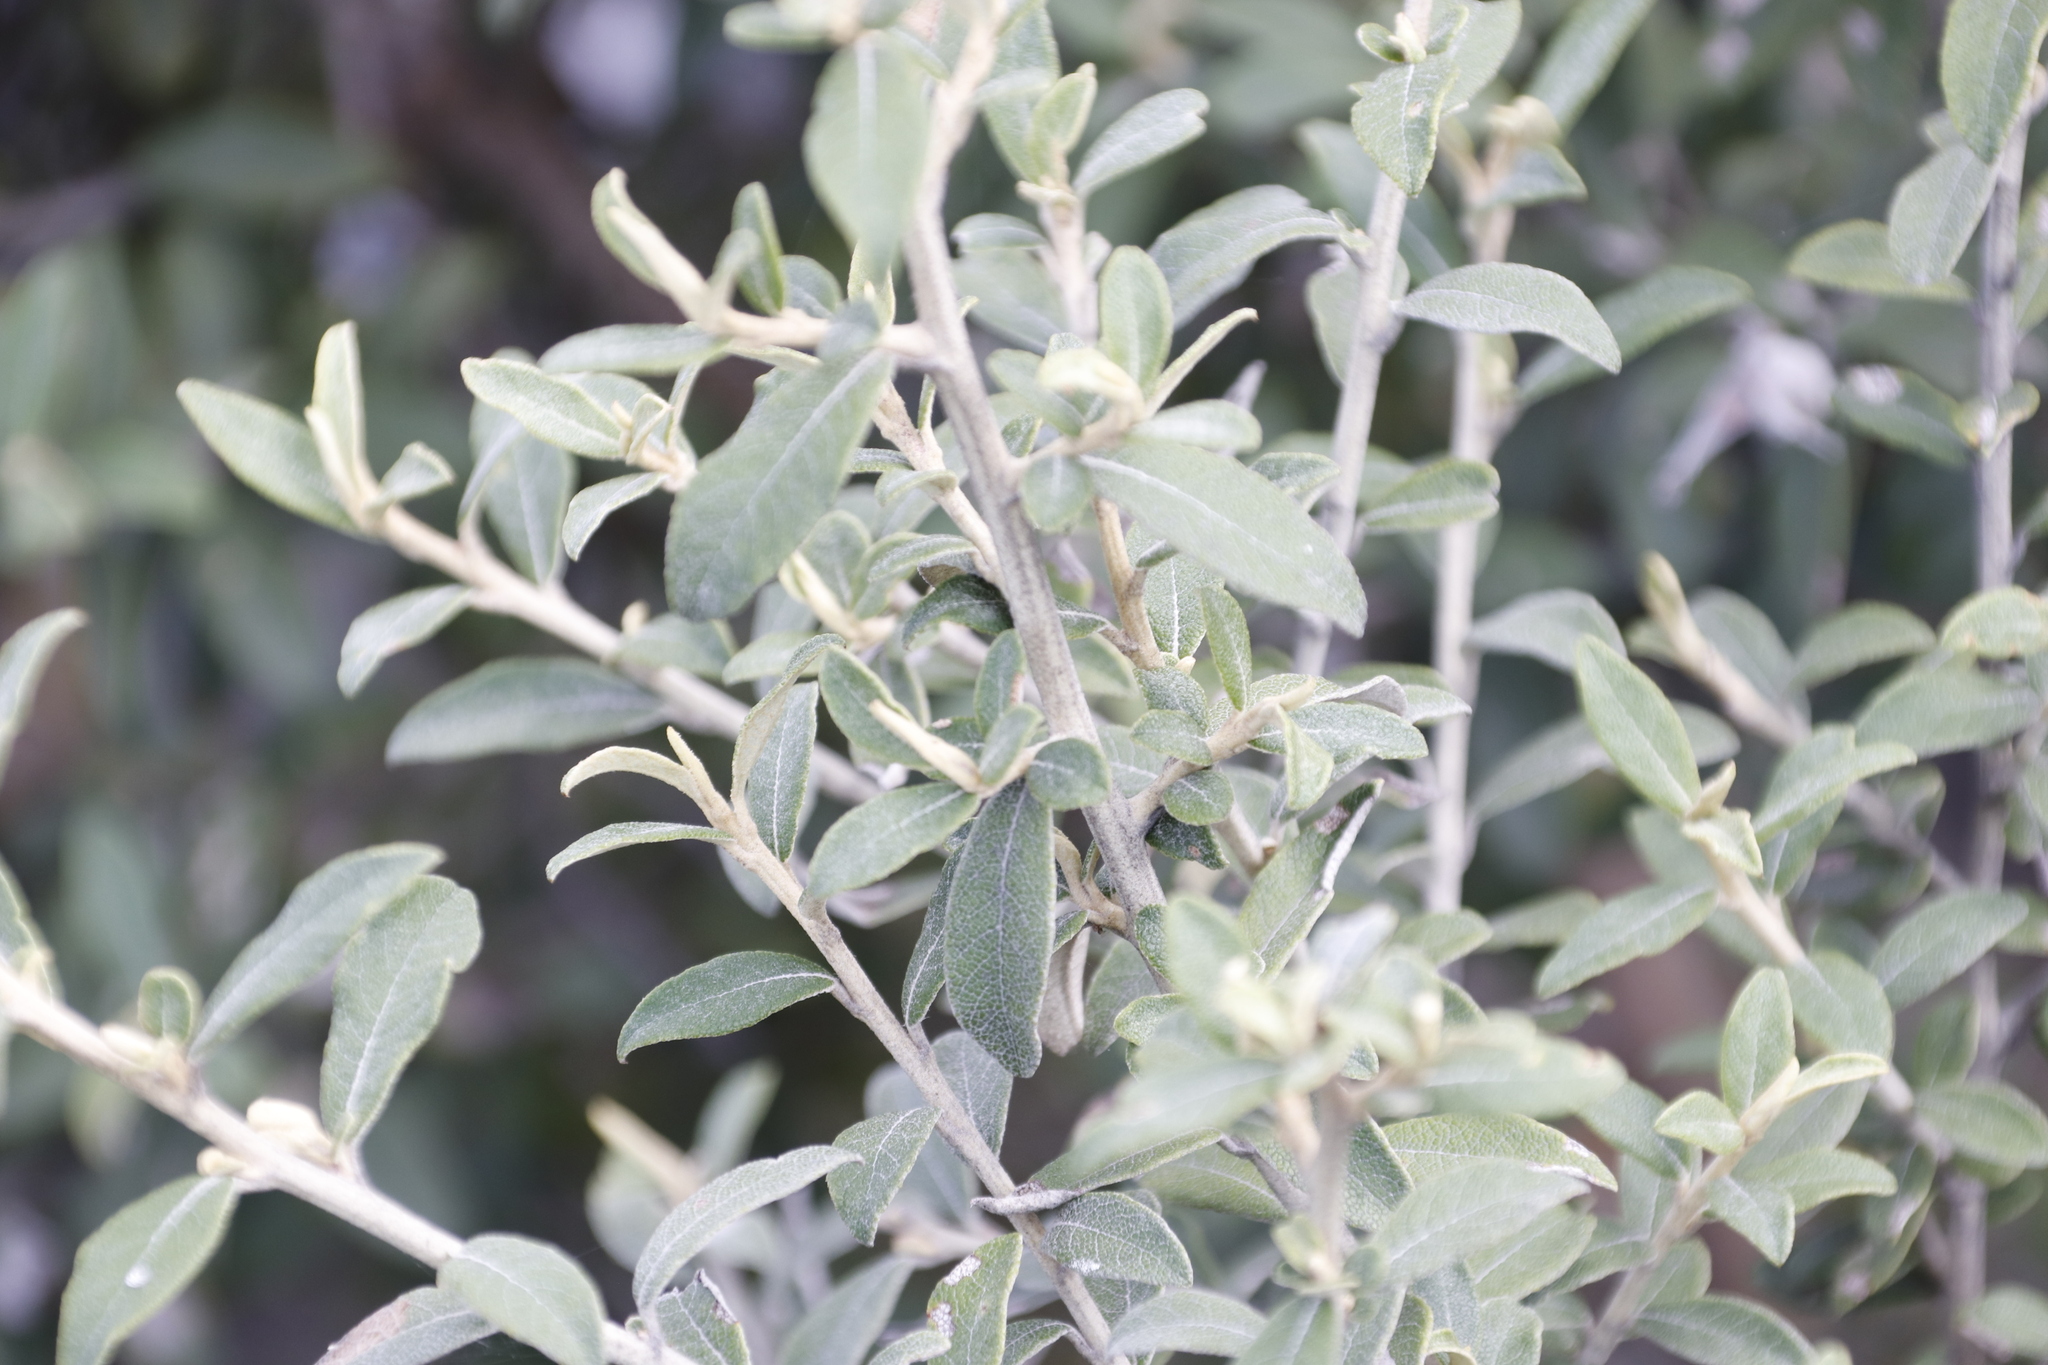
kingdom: Plantae
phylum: Tracheophyta
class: Magnoliopsida
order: Asterales
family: Asteraceae
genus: Tarchonanthus
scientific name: Tarchonanthus littoralis
